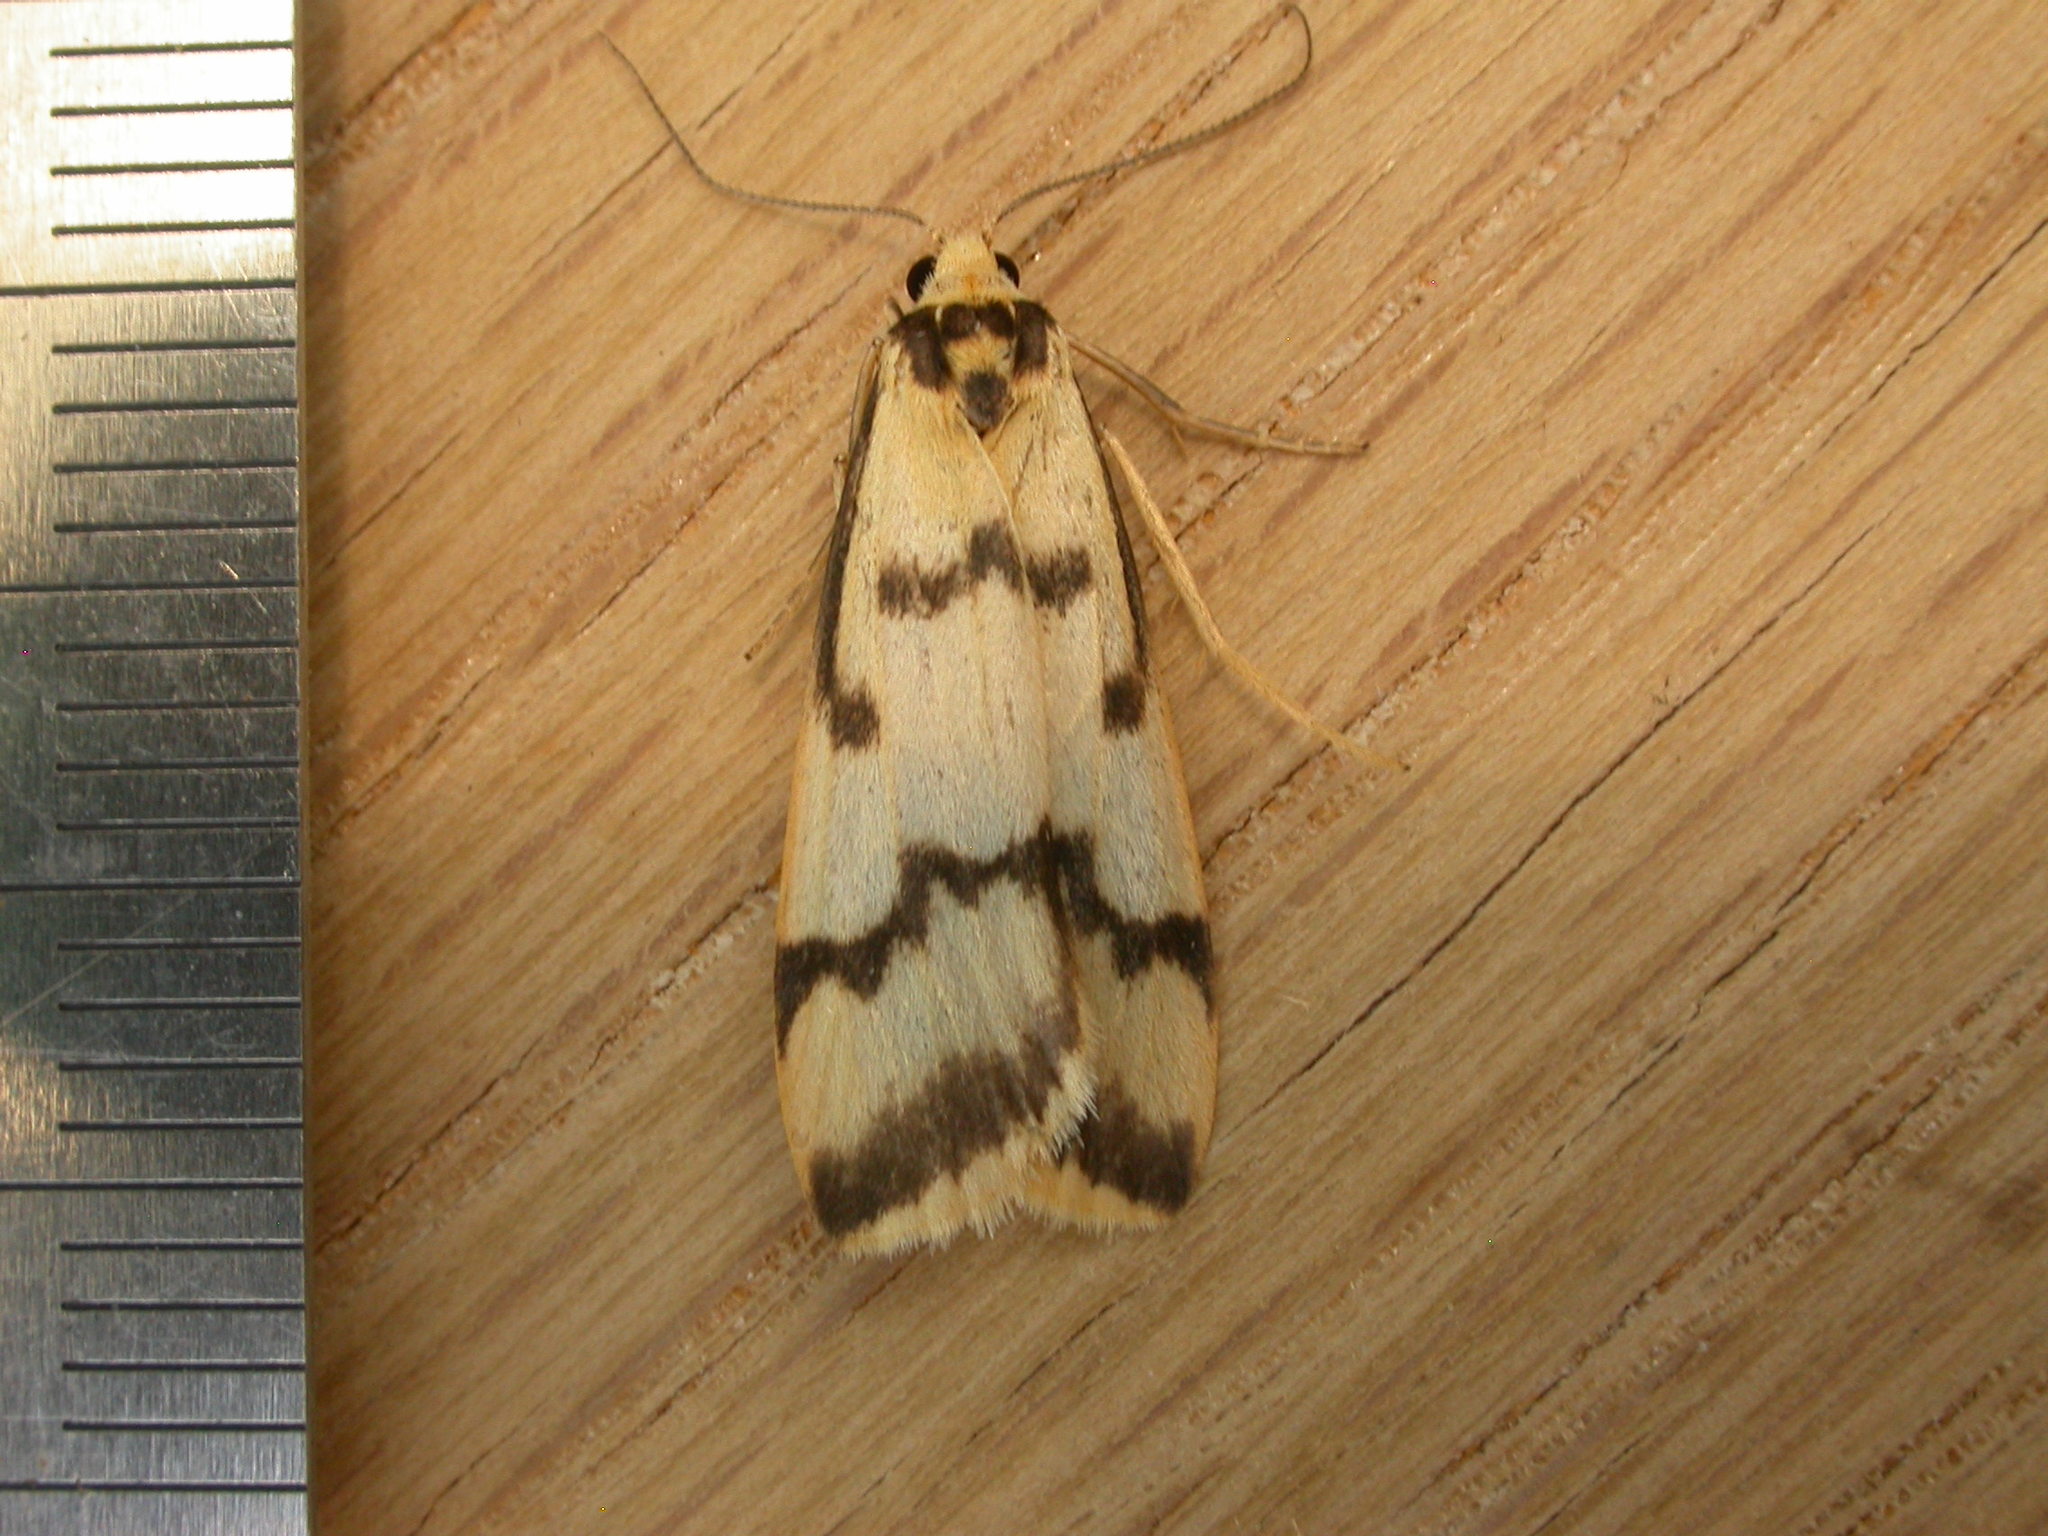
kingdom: Animalia
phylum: Arthropoda
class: Insecta
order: Lepidoptera
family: Erebidae
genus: Tigrioides
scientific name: Tigrioides alterna
